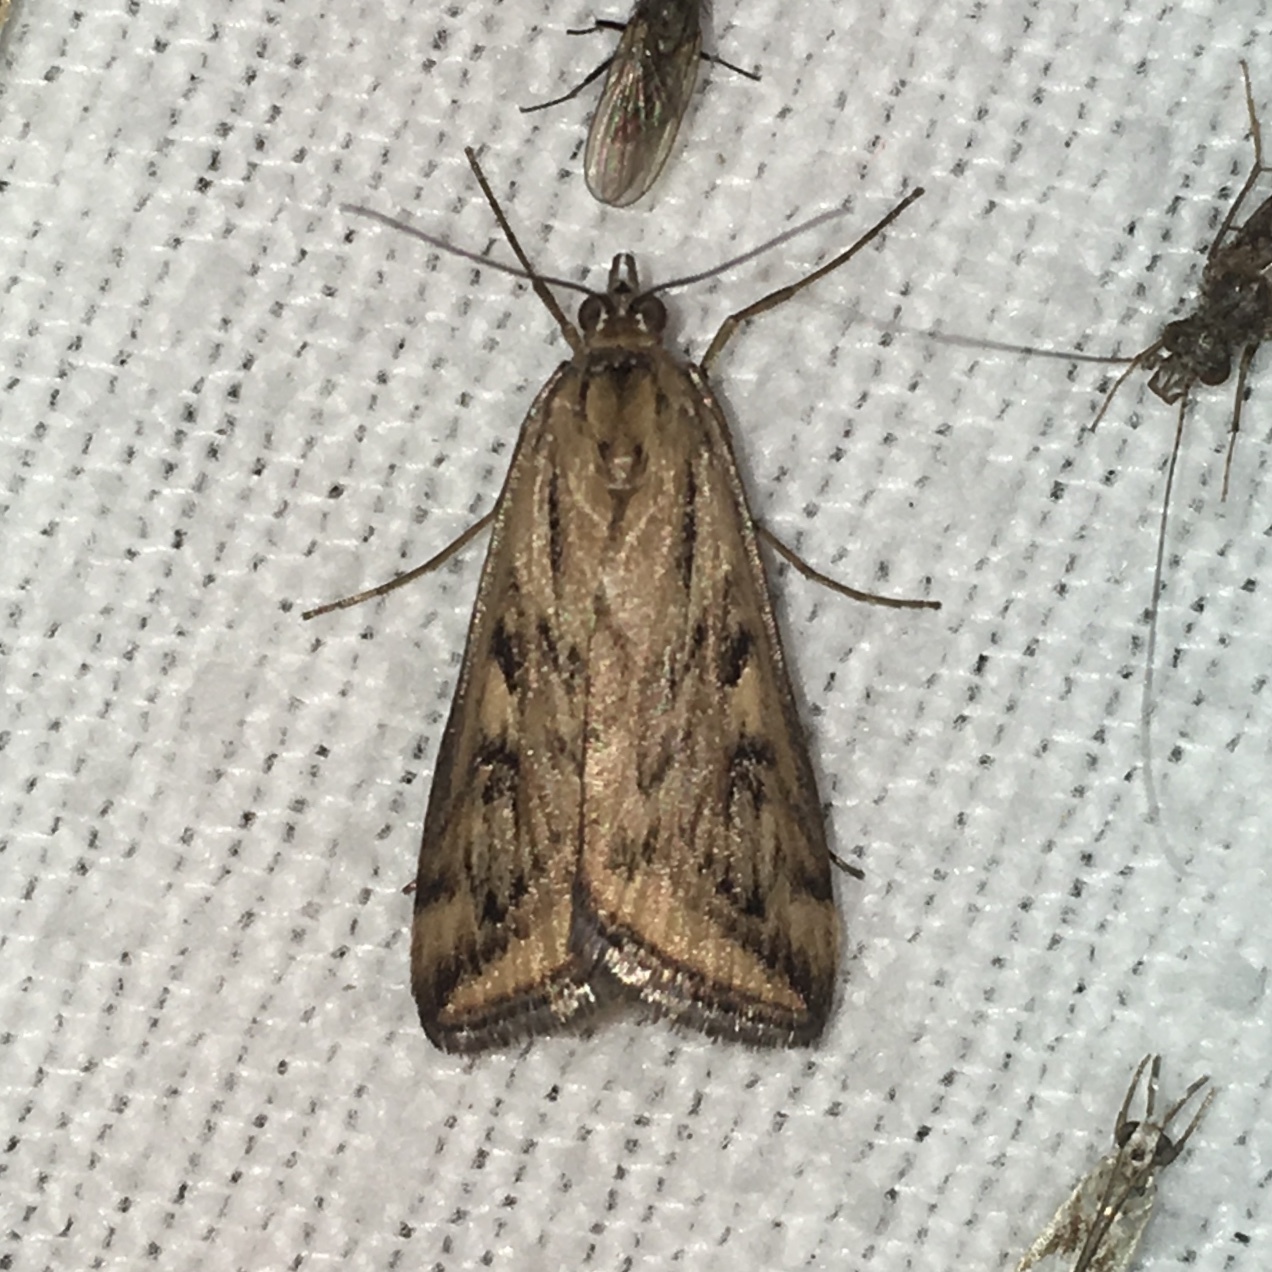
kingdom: Animalia
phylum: Arthropoda
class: Insecta
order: Lepidoptera
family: Crambidae
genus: Loxostege
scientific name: Loxostege cereralis
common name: Alfalfa webworm moth
